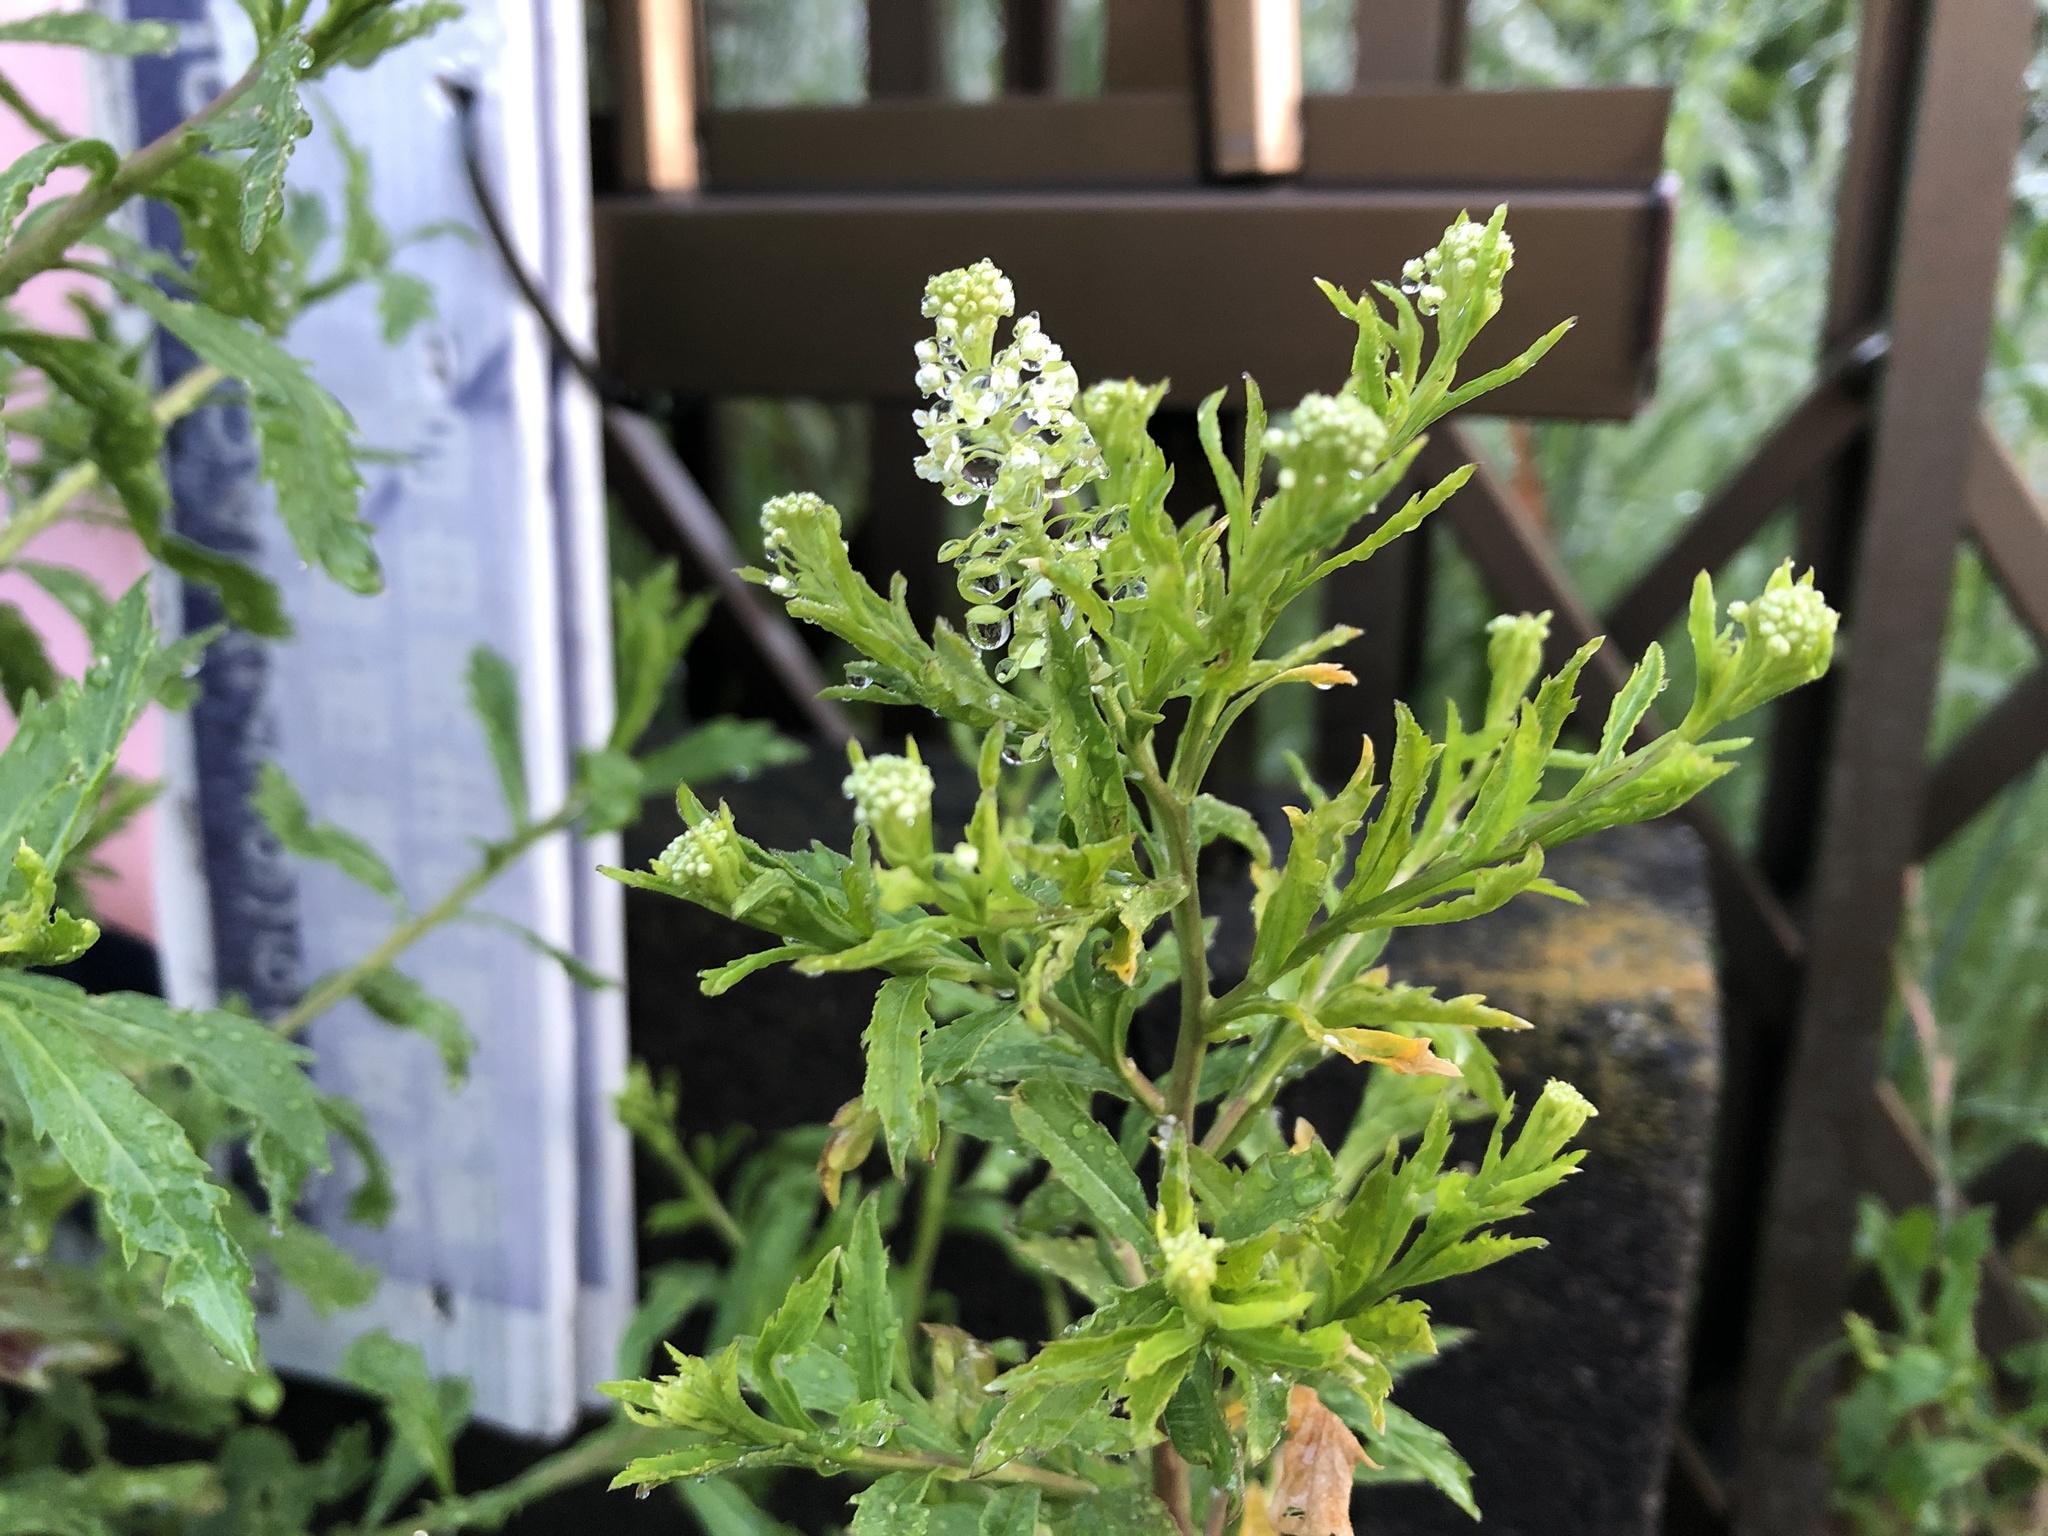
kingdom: Plantae
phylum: Tracheophyta
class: Magnoliopsida
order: Brassicales
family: Brassicaceae
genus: Lepidium
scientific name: Lepidium virginicum
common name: Least pepperwort
